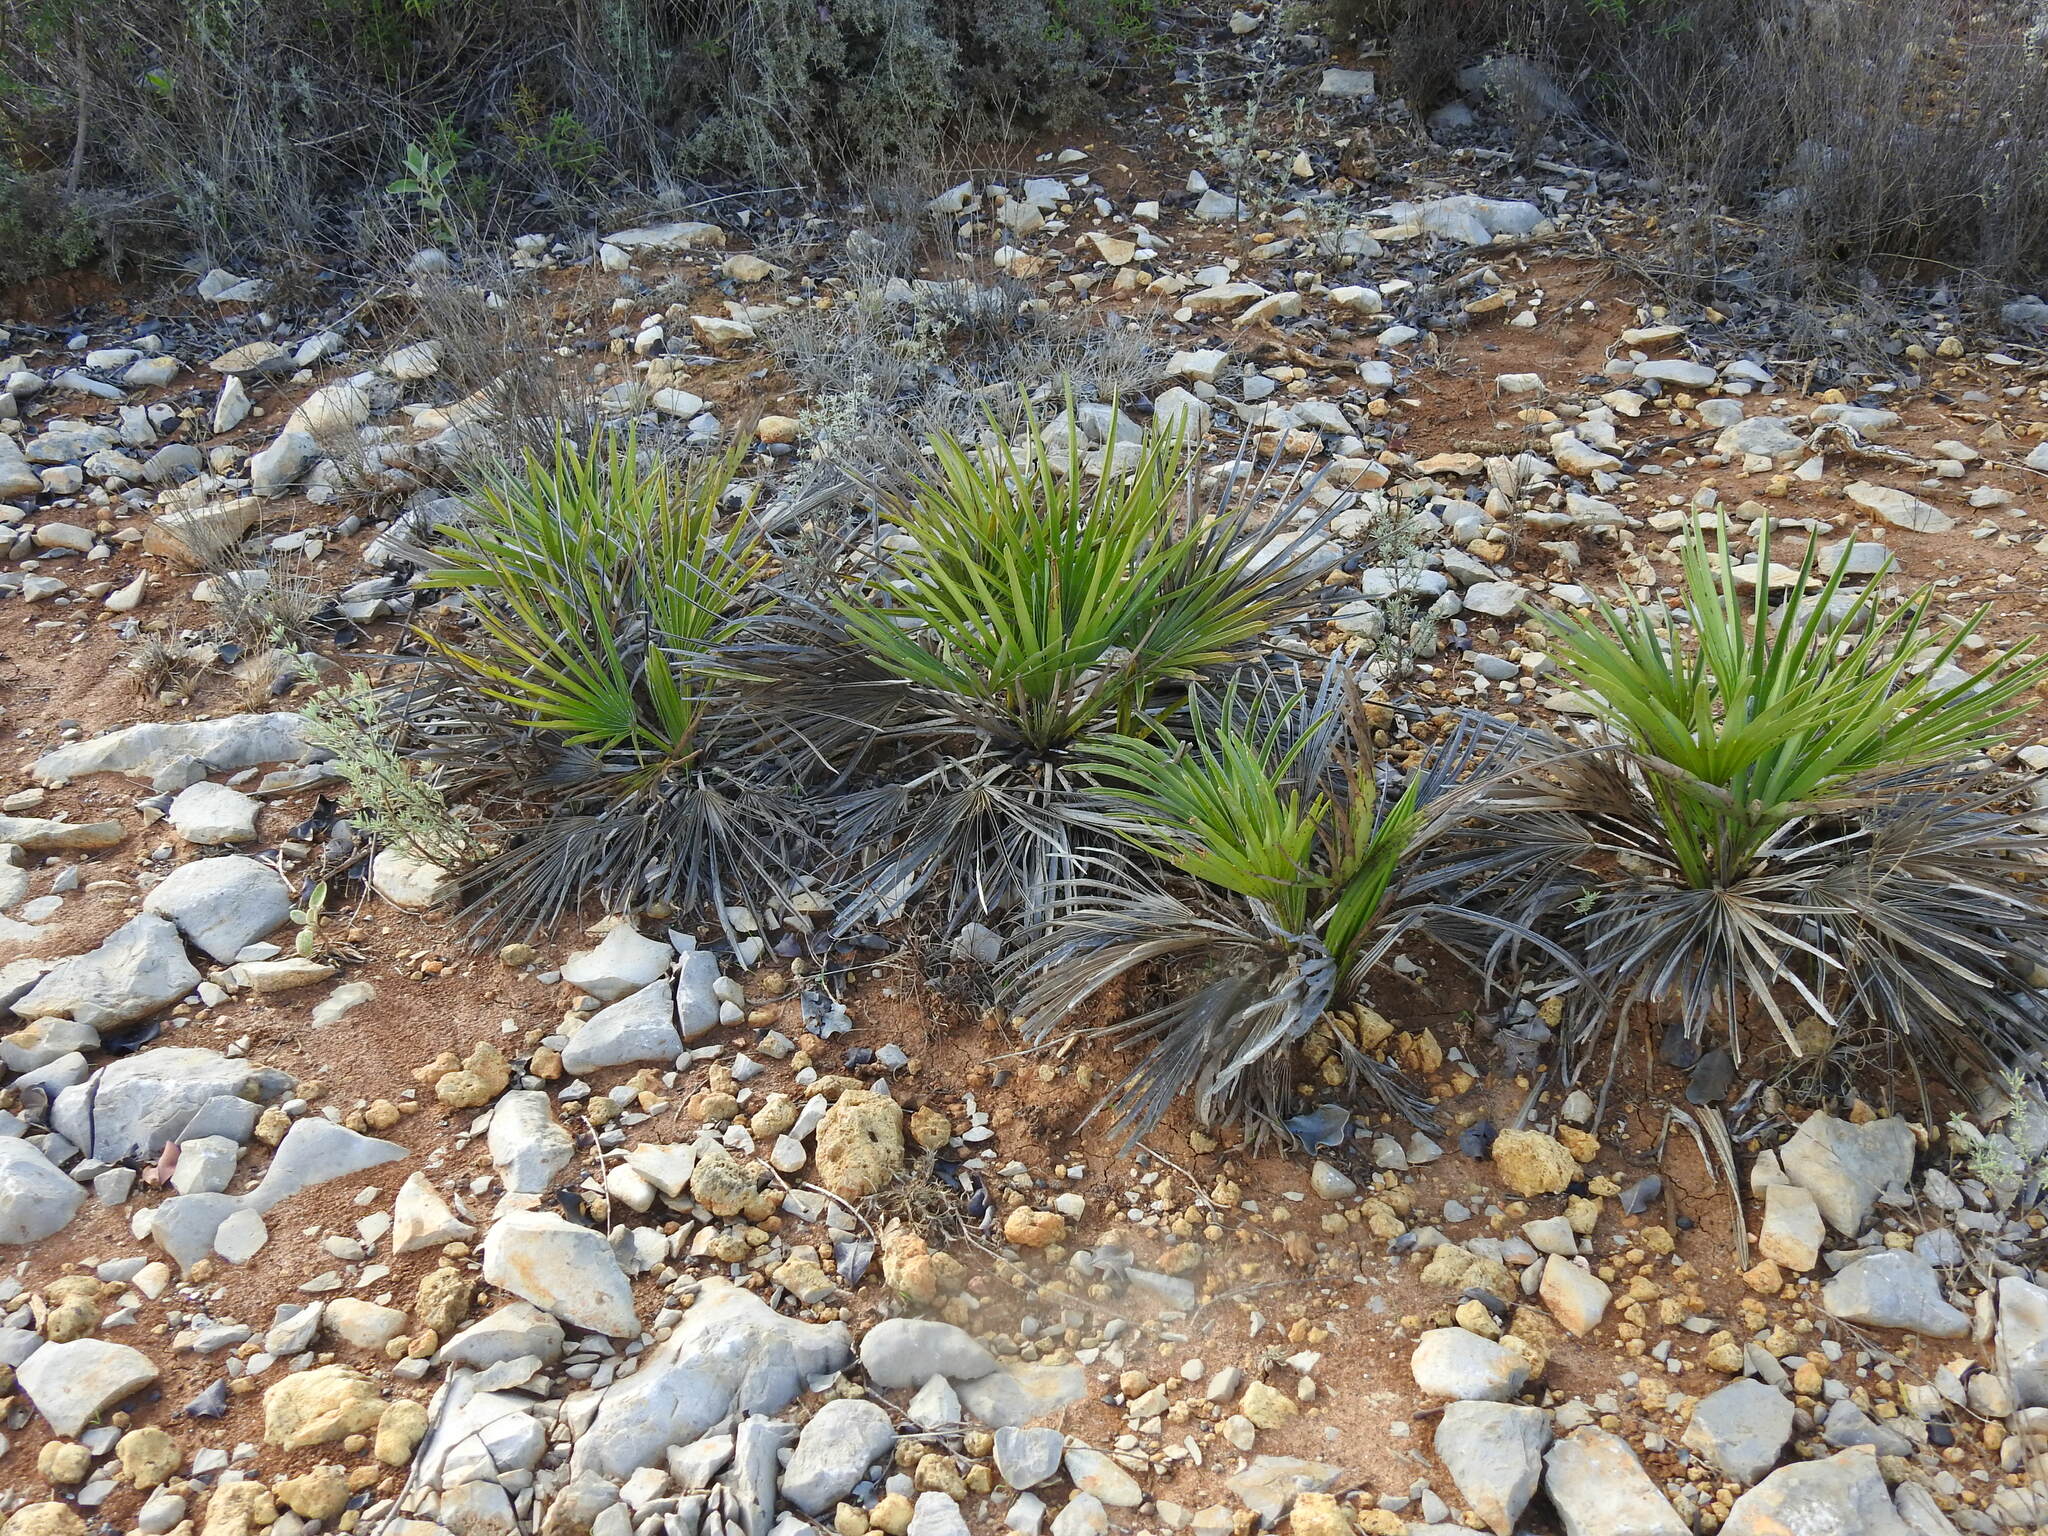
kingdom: Plantae
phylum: Tracheophyta
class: Liliopsida
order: Arecales
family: Arecaceae
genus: Chamaerops
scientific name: Chamaerops humilis
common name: Dwarf fan palm
